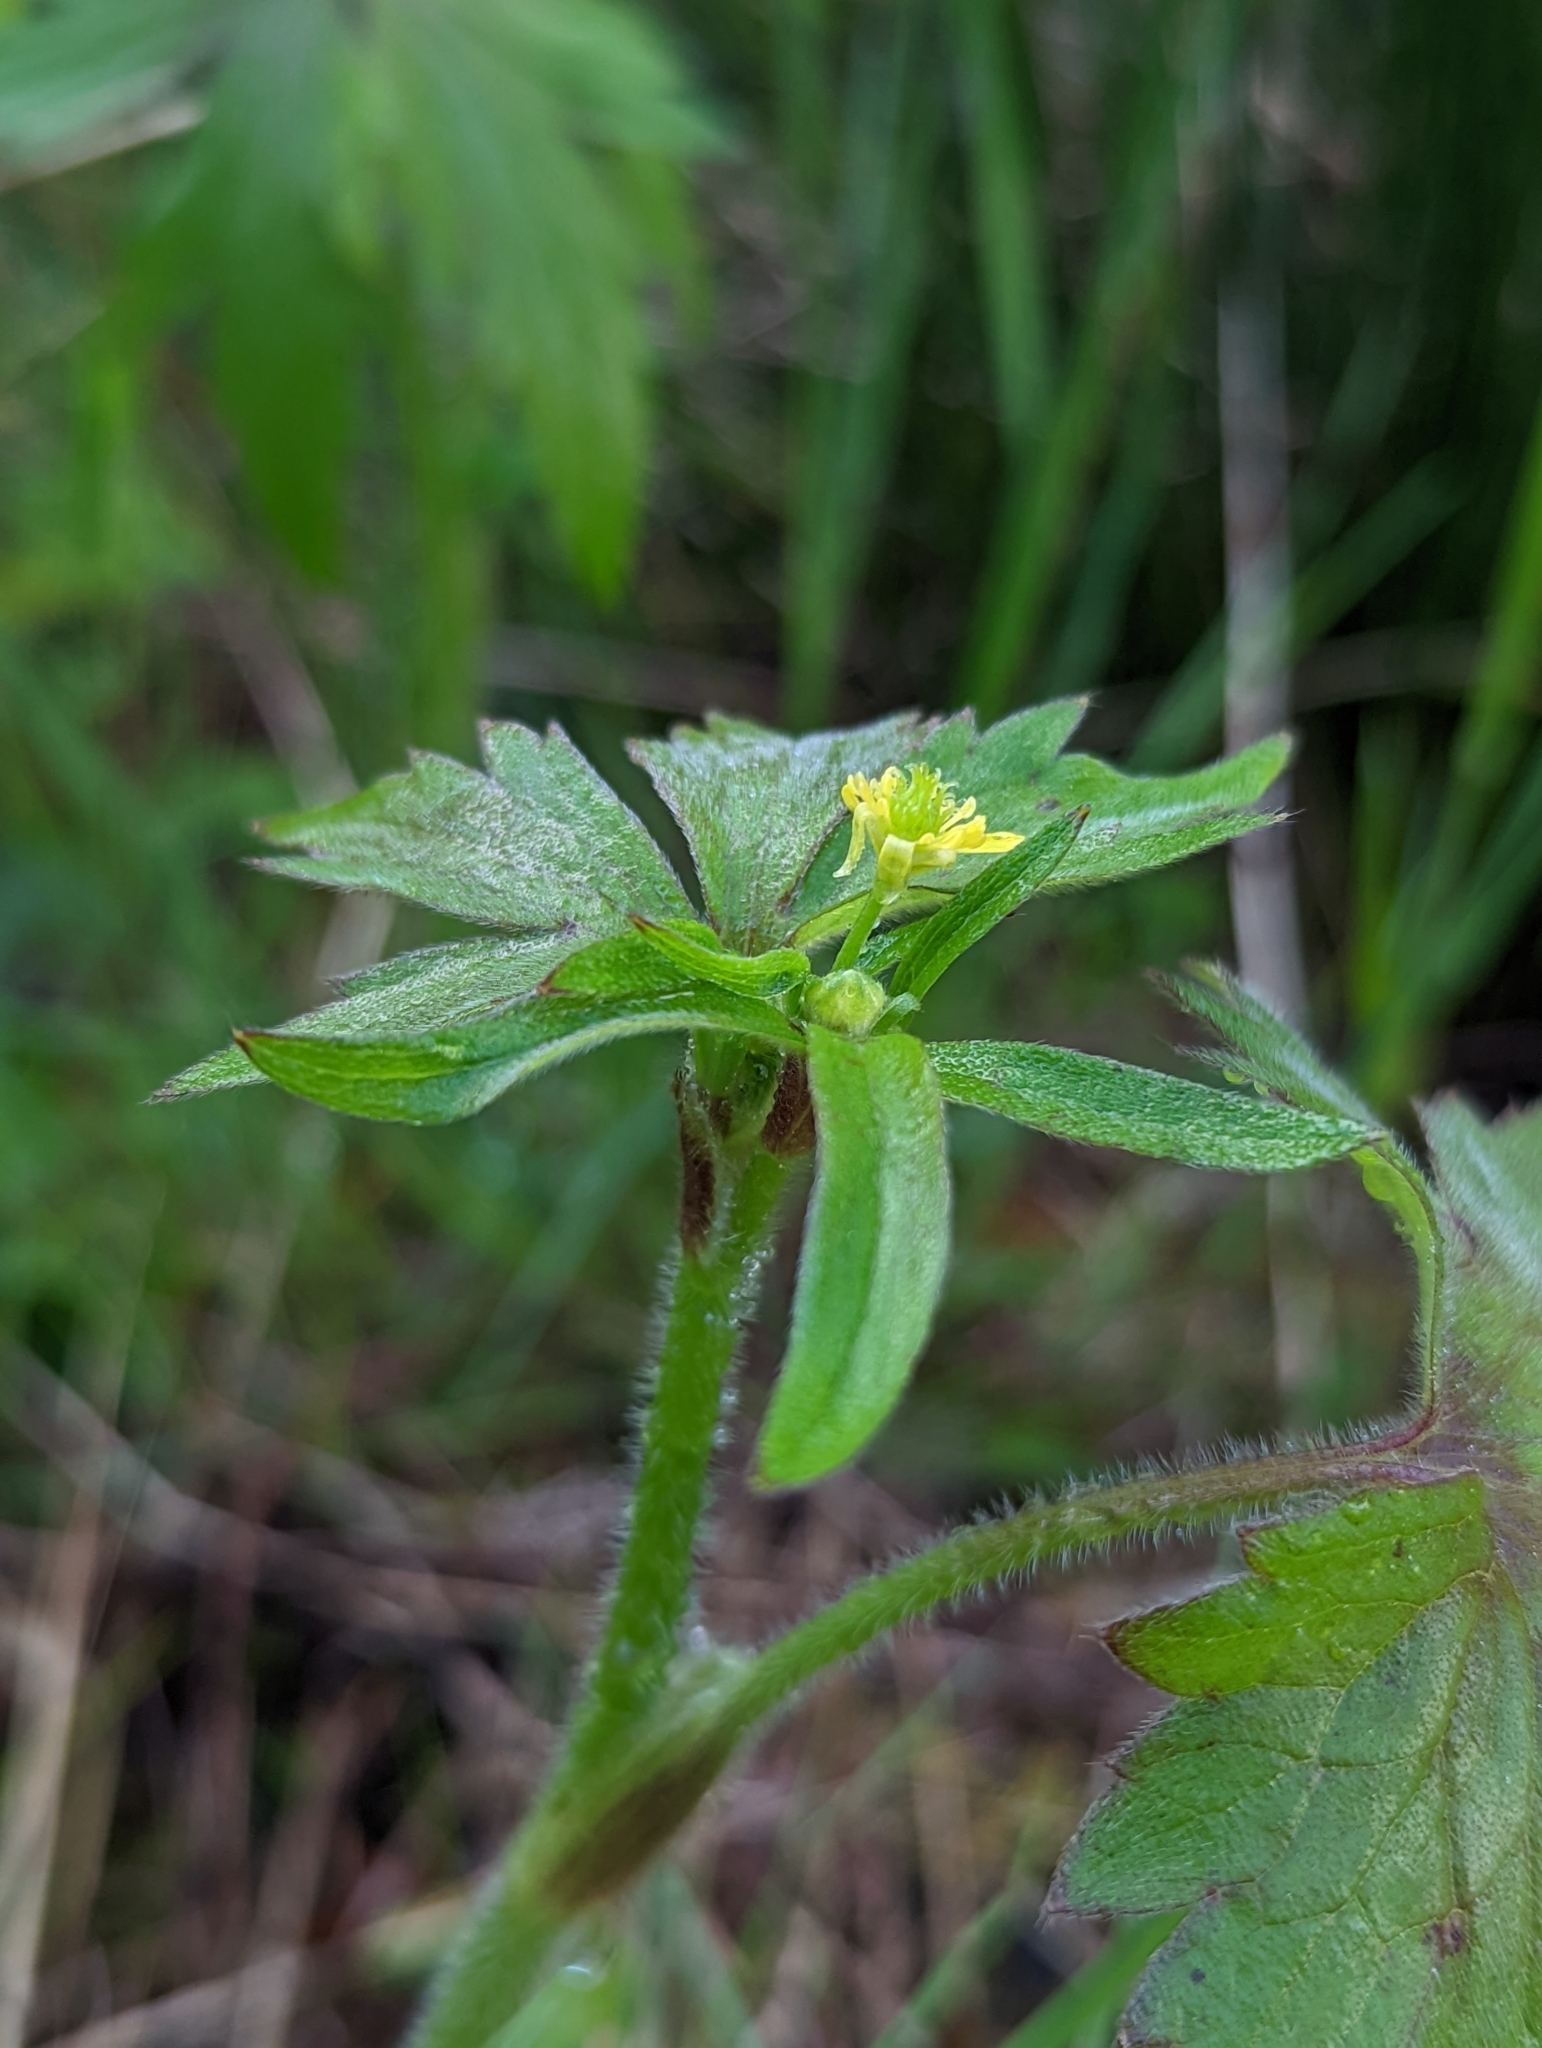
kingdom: Plantae
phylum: Tracheophyta
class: Magnoliopsida
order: Ranunculales
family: Ranunculaceae
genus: Ranunculus
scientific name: Ranunculus uncinatus
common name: Little buttercup
